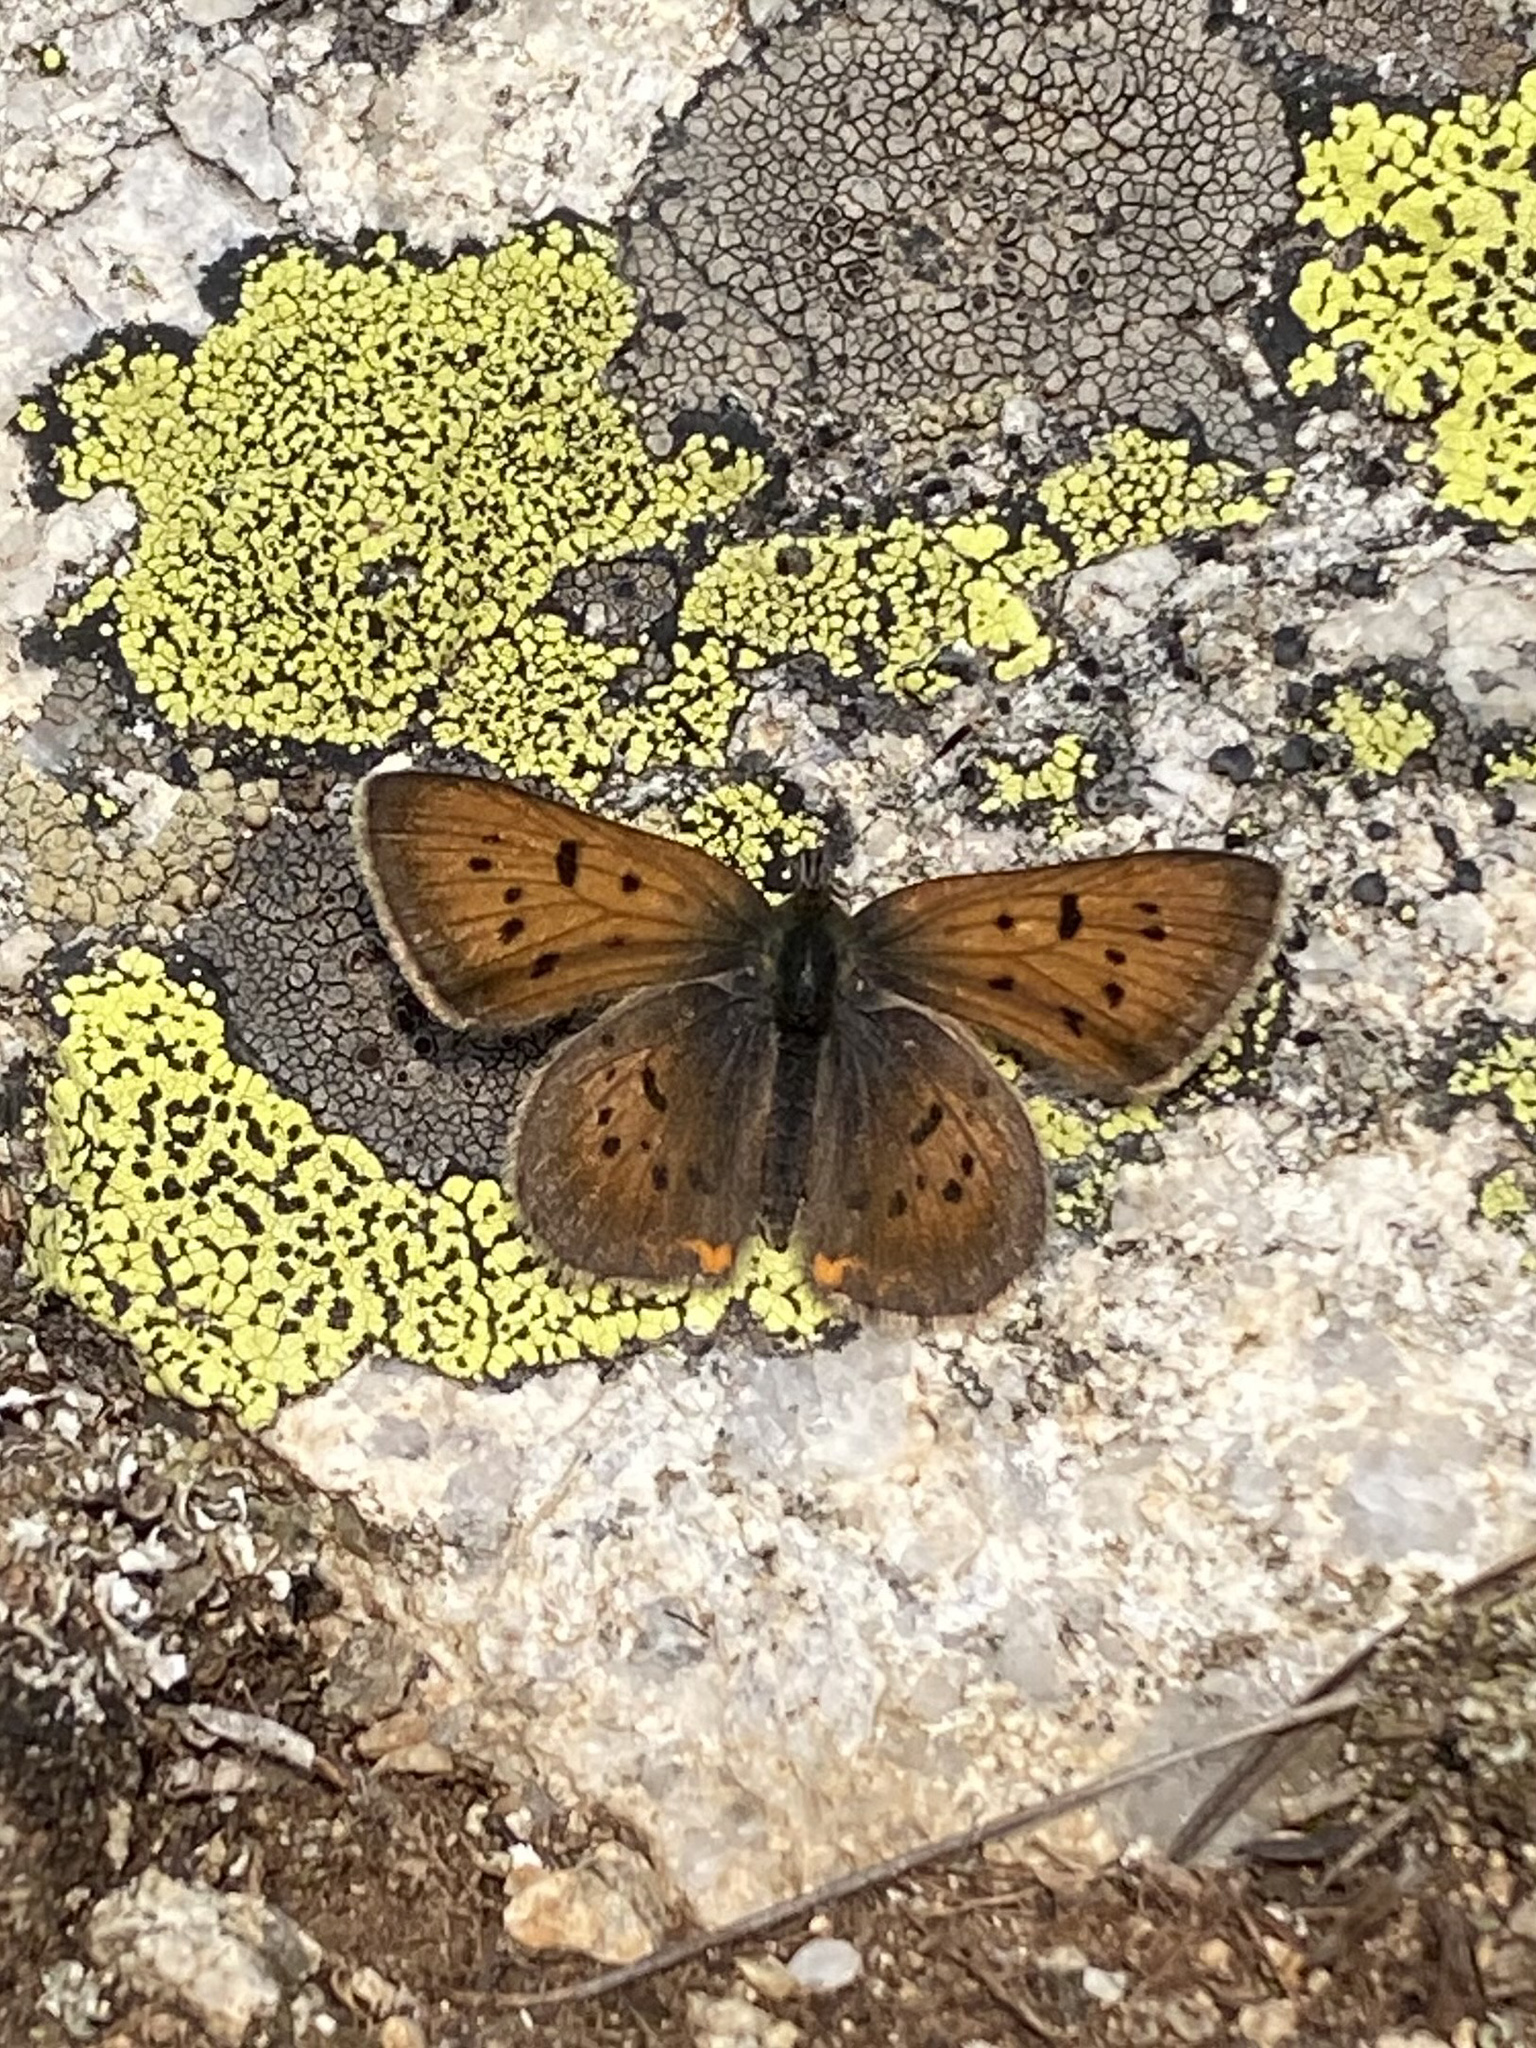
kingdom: Animalia
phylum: Arthropoda
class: Insecta
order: Lepidoptera
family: Lycaenidae
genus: Tharsalea
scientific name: Tharsalea dorcas
